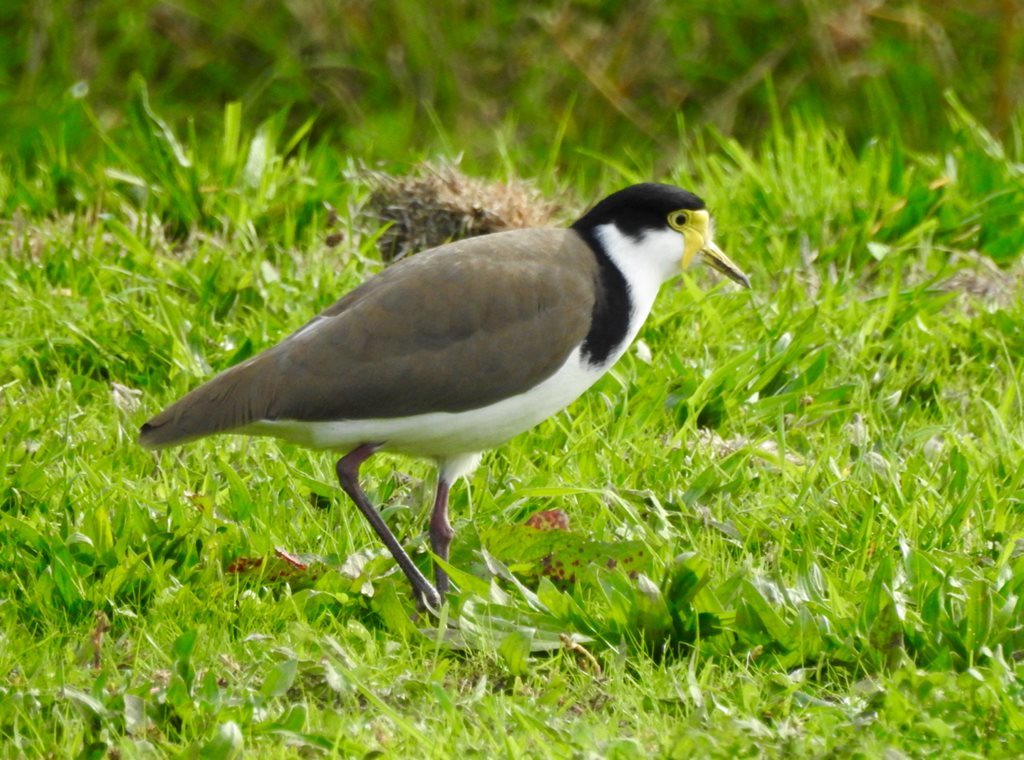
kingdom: Animalia
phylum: Chordata
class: Aves
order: Charadriiformes
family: Charadriidae
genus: Vanellus
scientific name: Vanellus miles
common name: Masked lapwing
